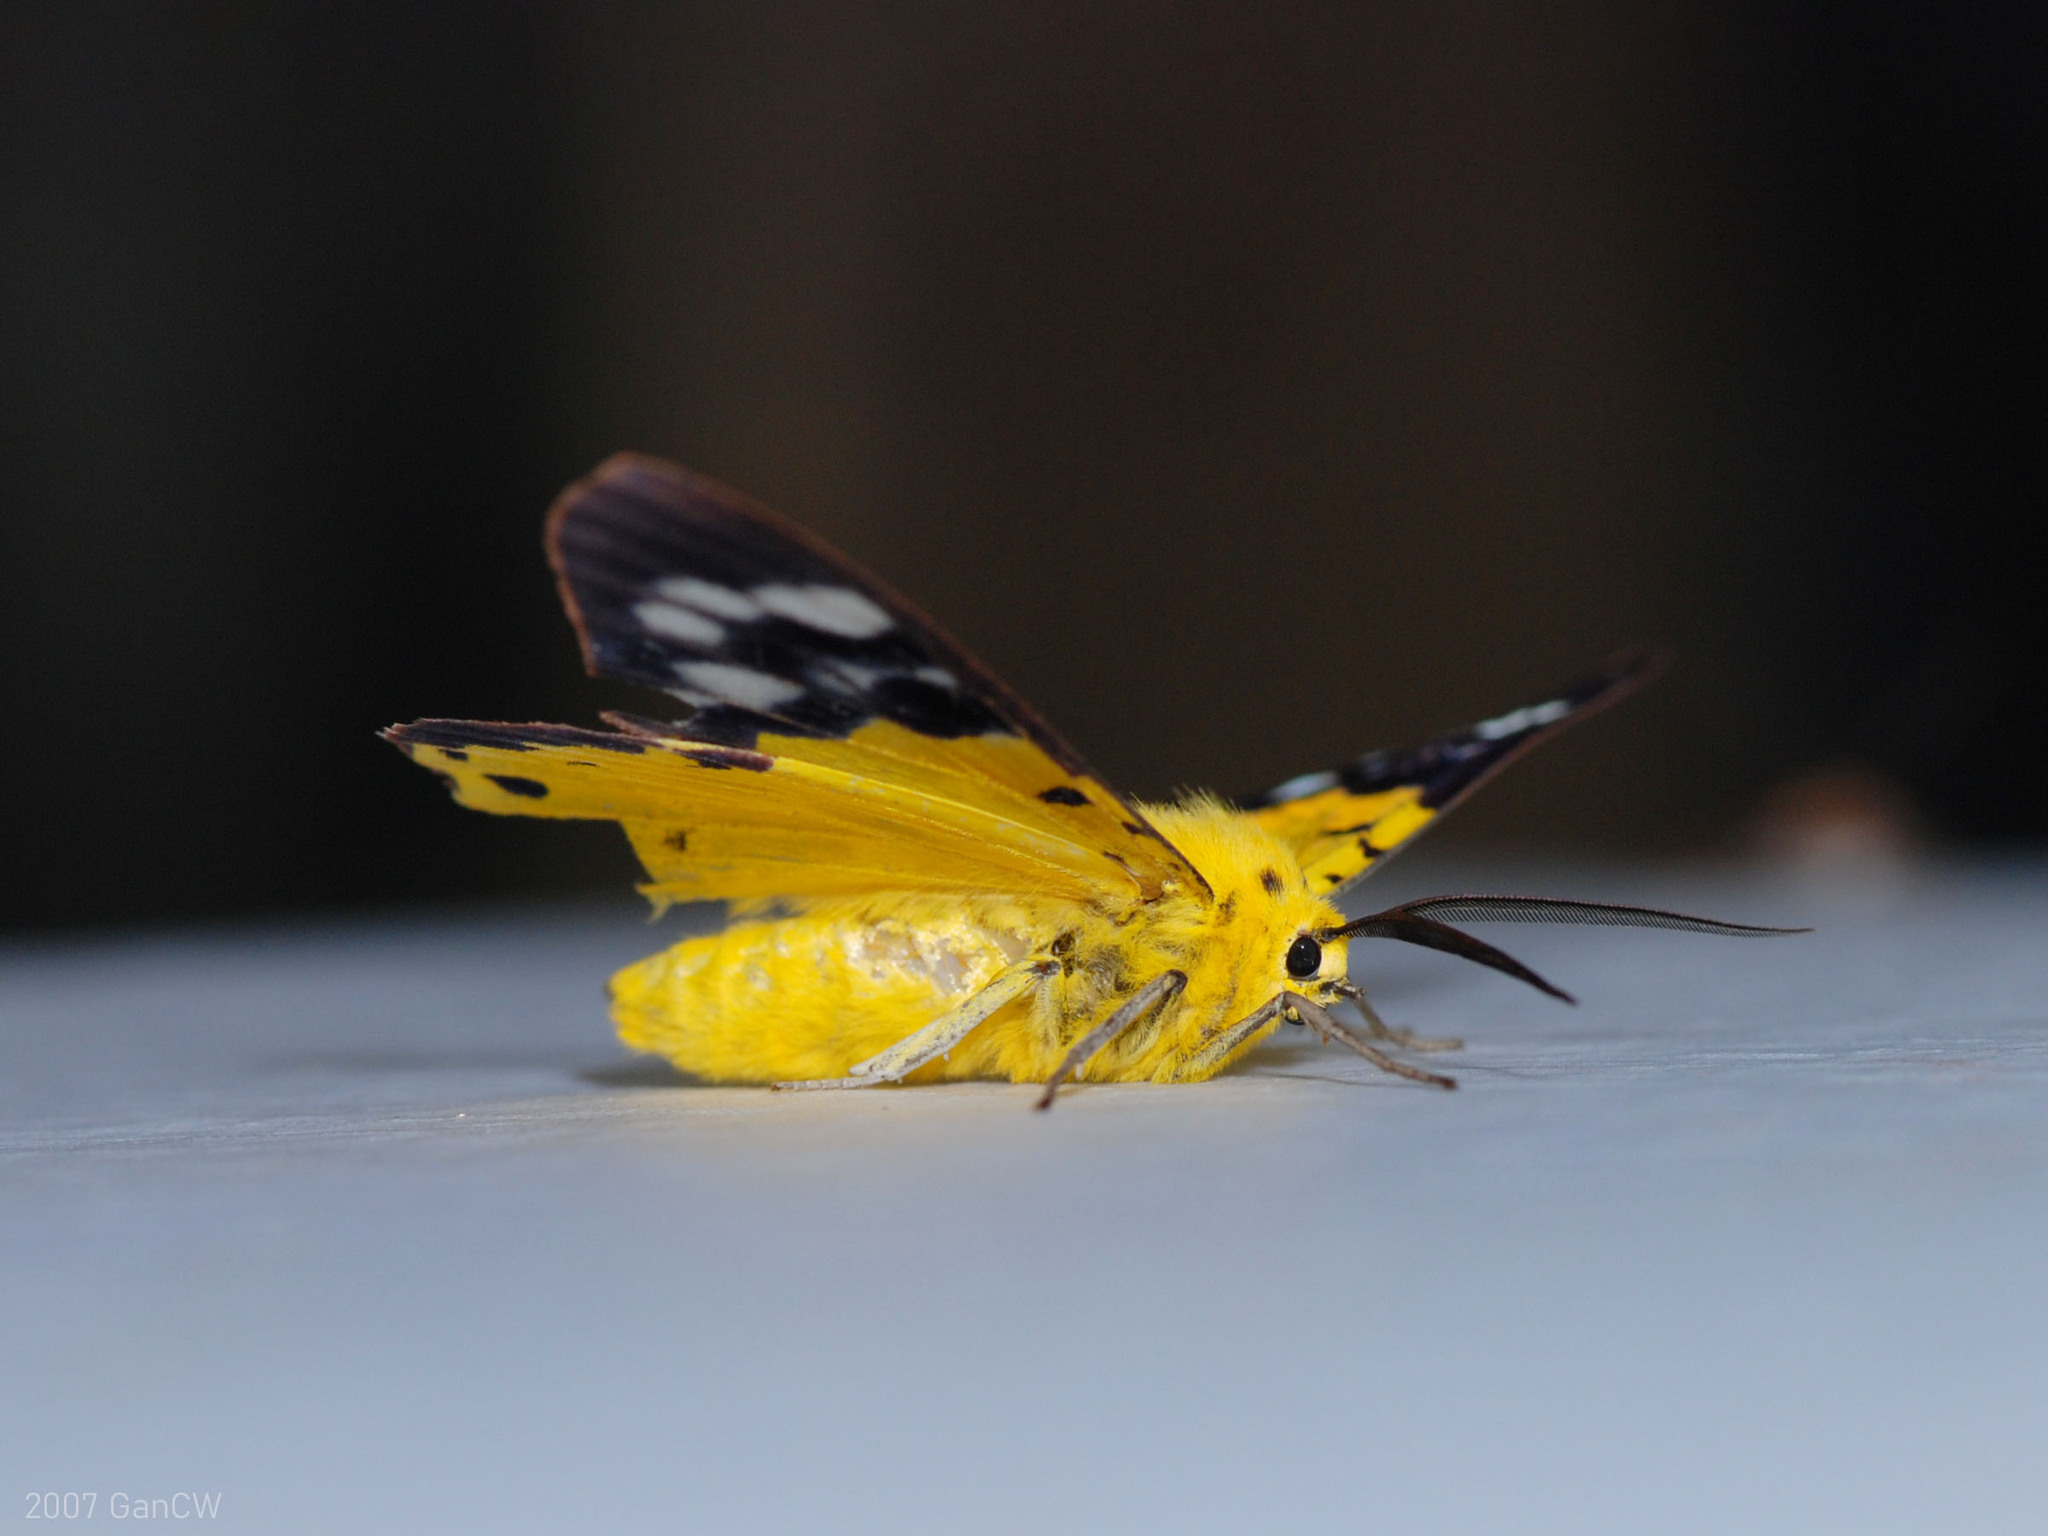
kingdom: Animalia
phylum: Arthropoda
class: Insecta
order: Lepidoptera
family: Geometridae
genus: Dysphania
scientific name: Dysphania sagana
